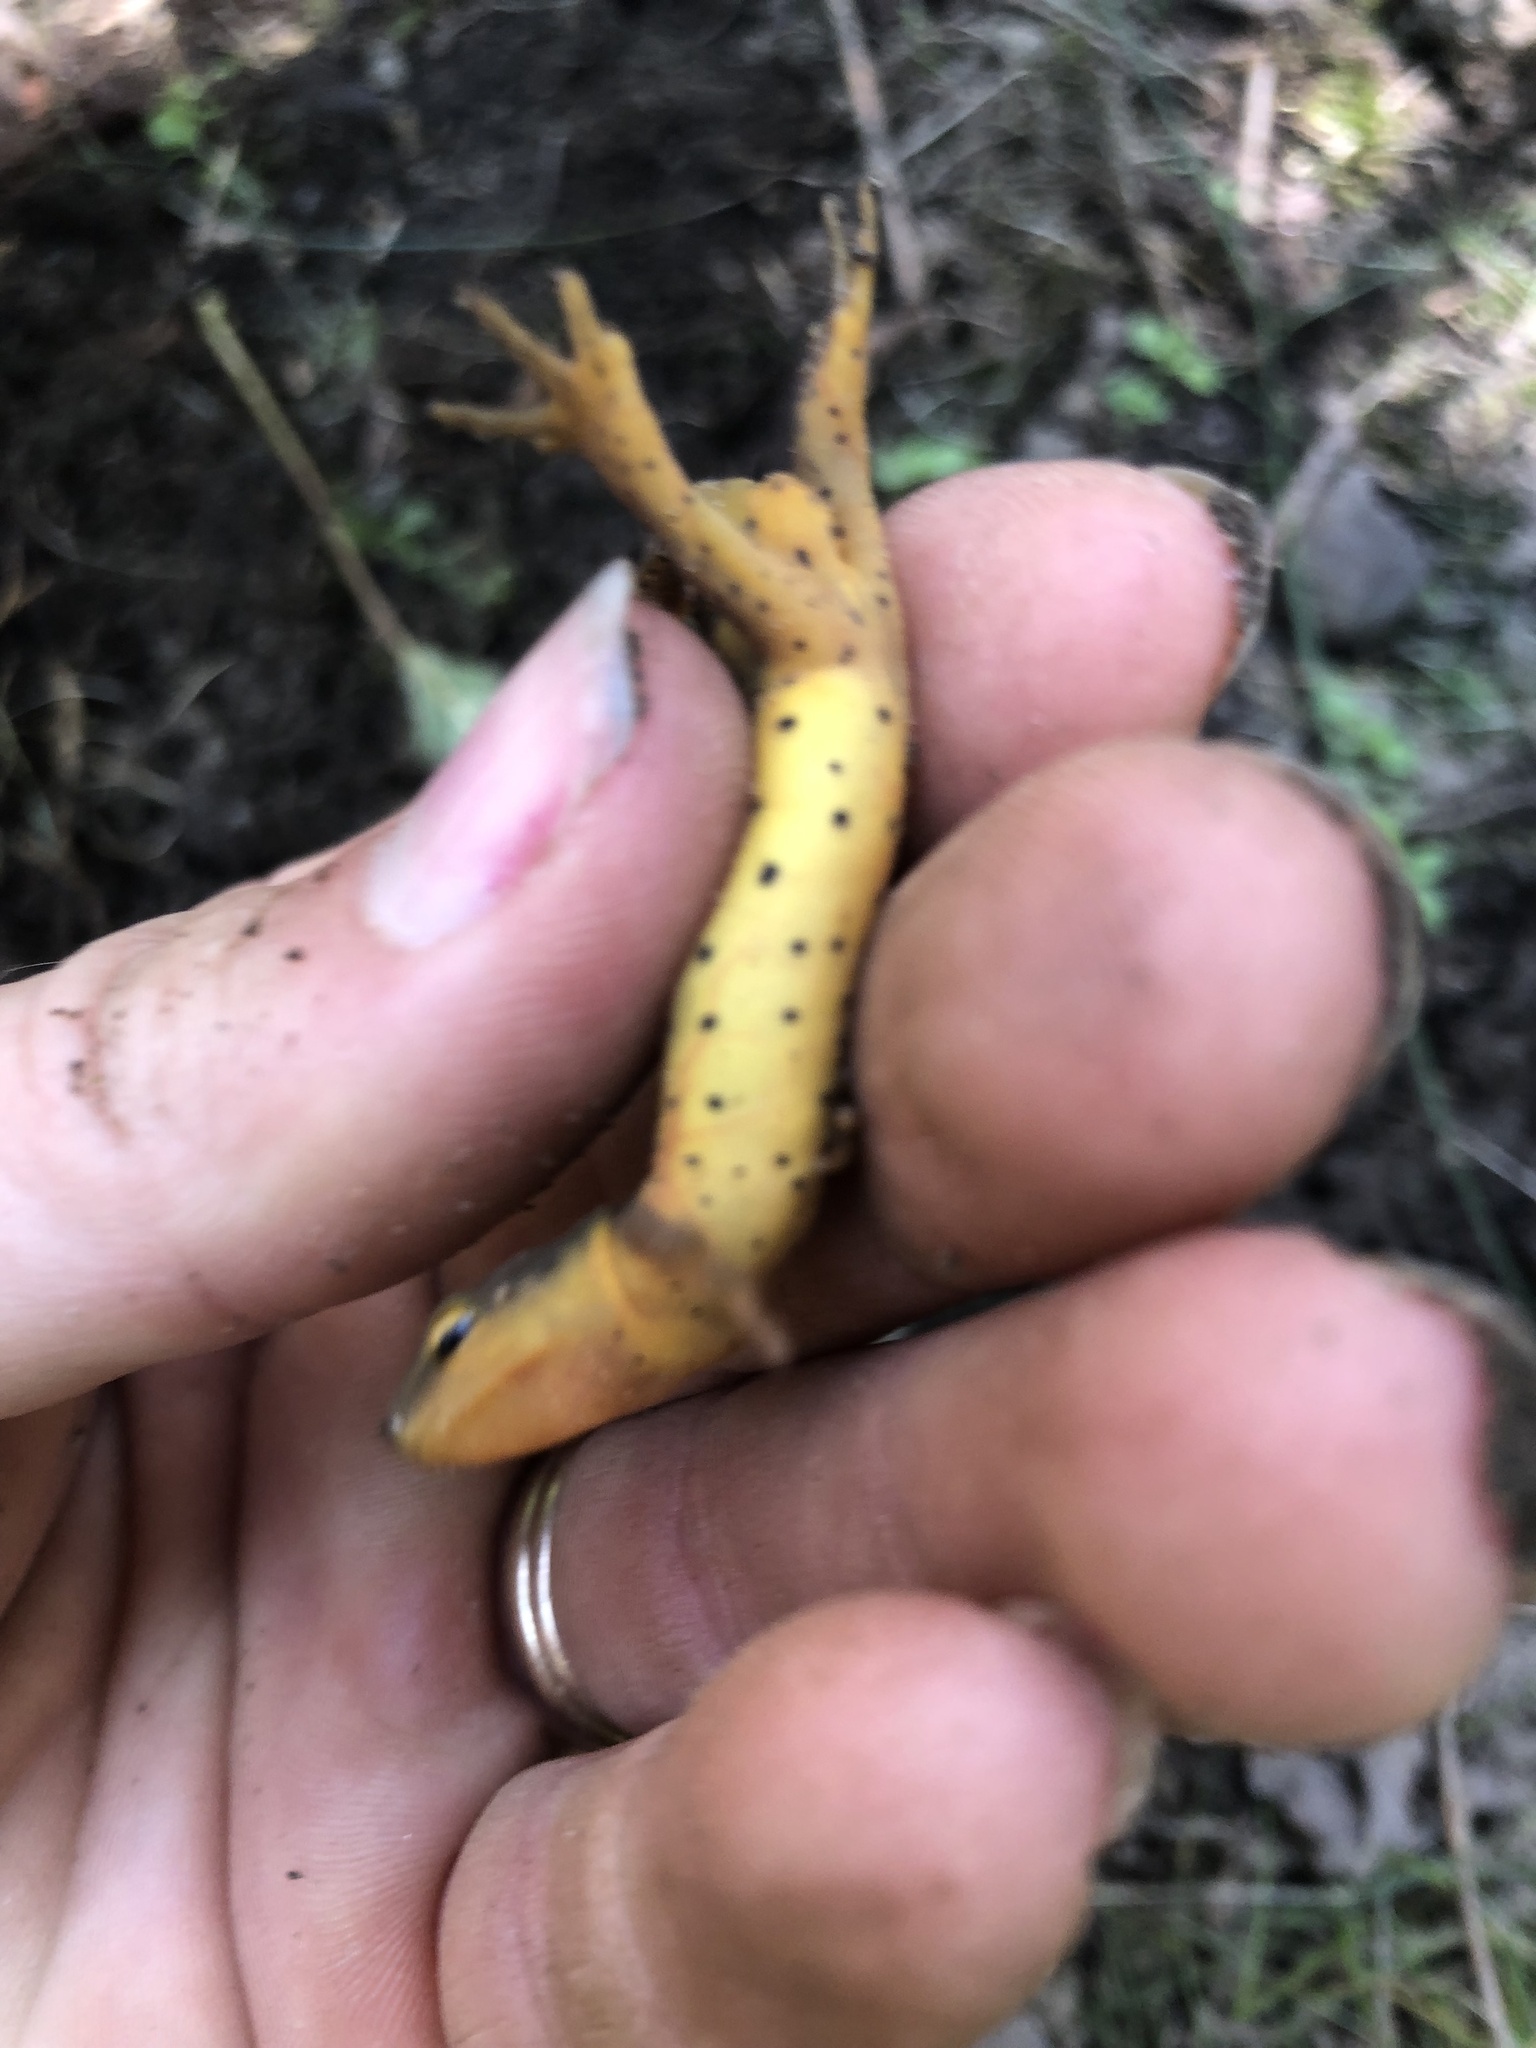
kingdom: Animalia
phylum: Chordata
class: Amphibia
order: Caudata
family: Salamandridae
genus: Notophthalmus
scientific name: Notophthalmus viridescens
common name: Eastern newt
